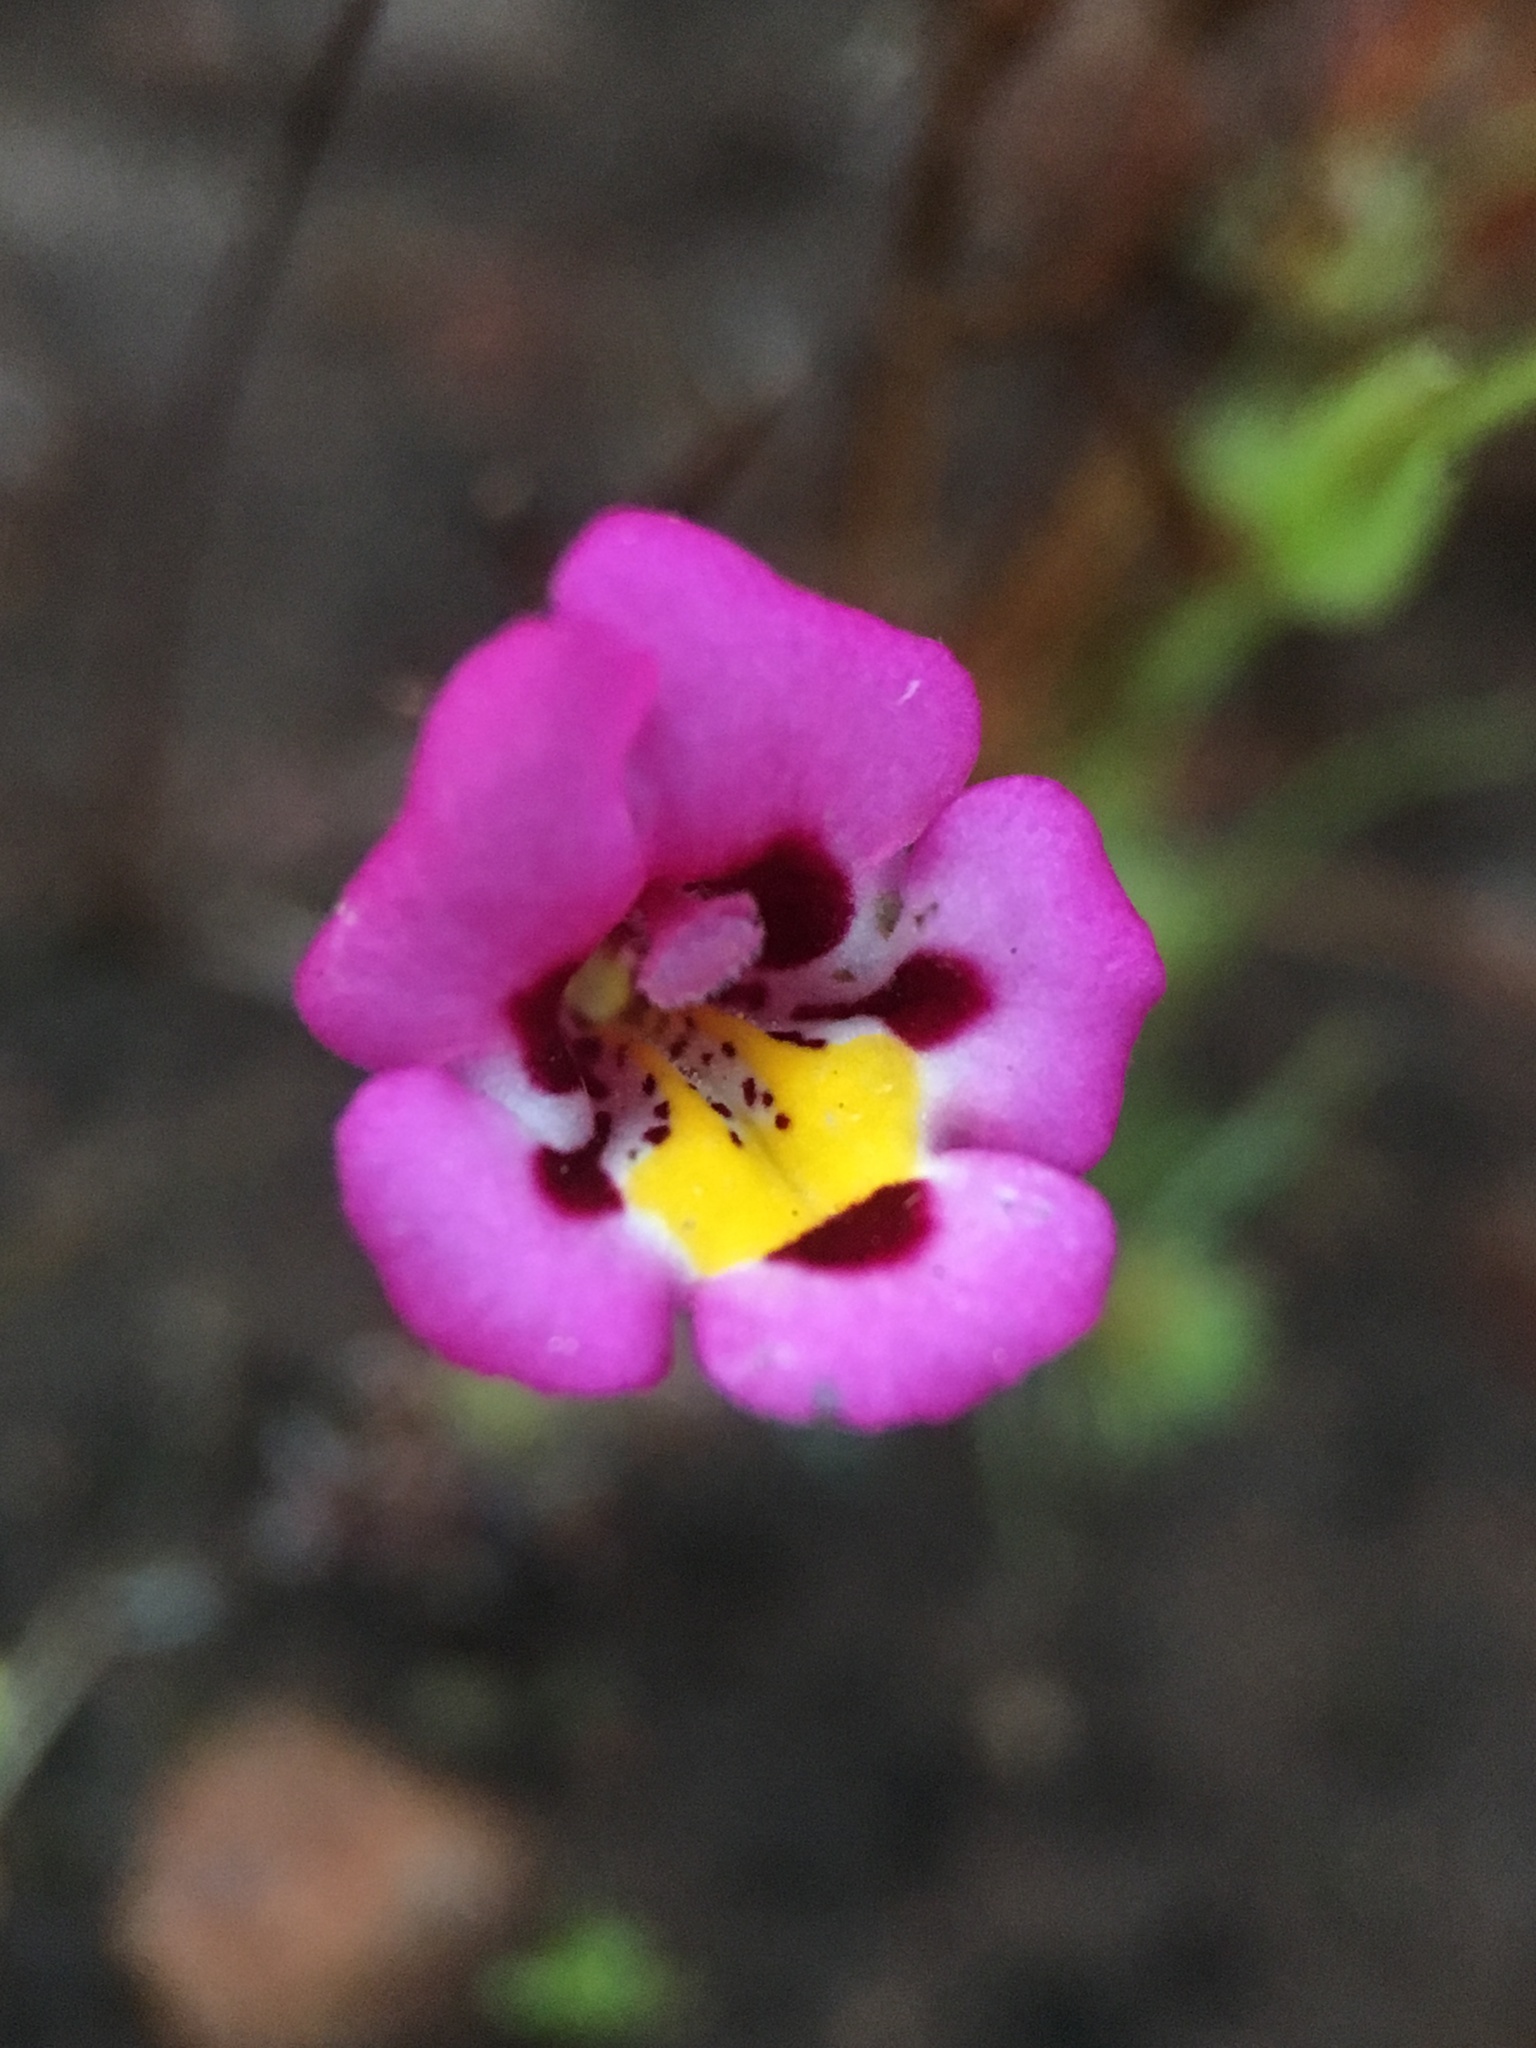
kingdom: Plantae
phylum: Tracheophyta
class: Magnoliopsida
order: Lamiales
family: Phrymaceae
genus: Diplacus
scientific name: Diplacus angustatus
